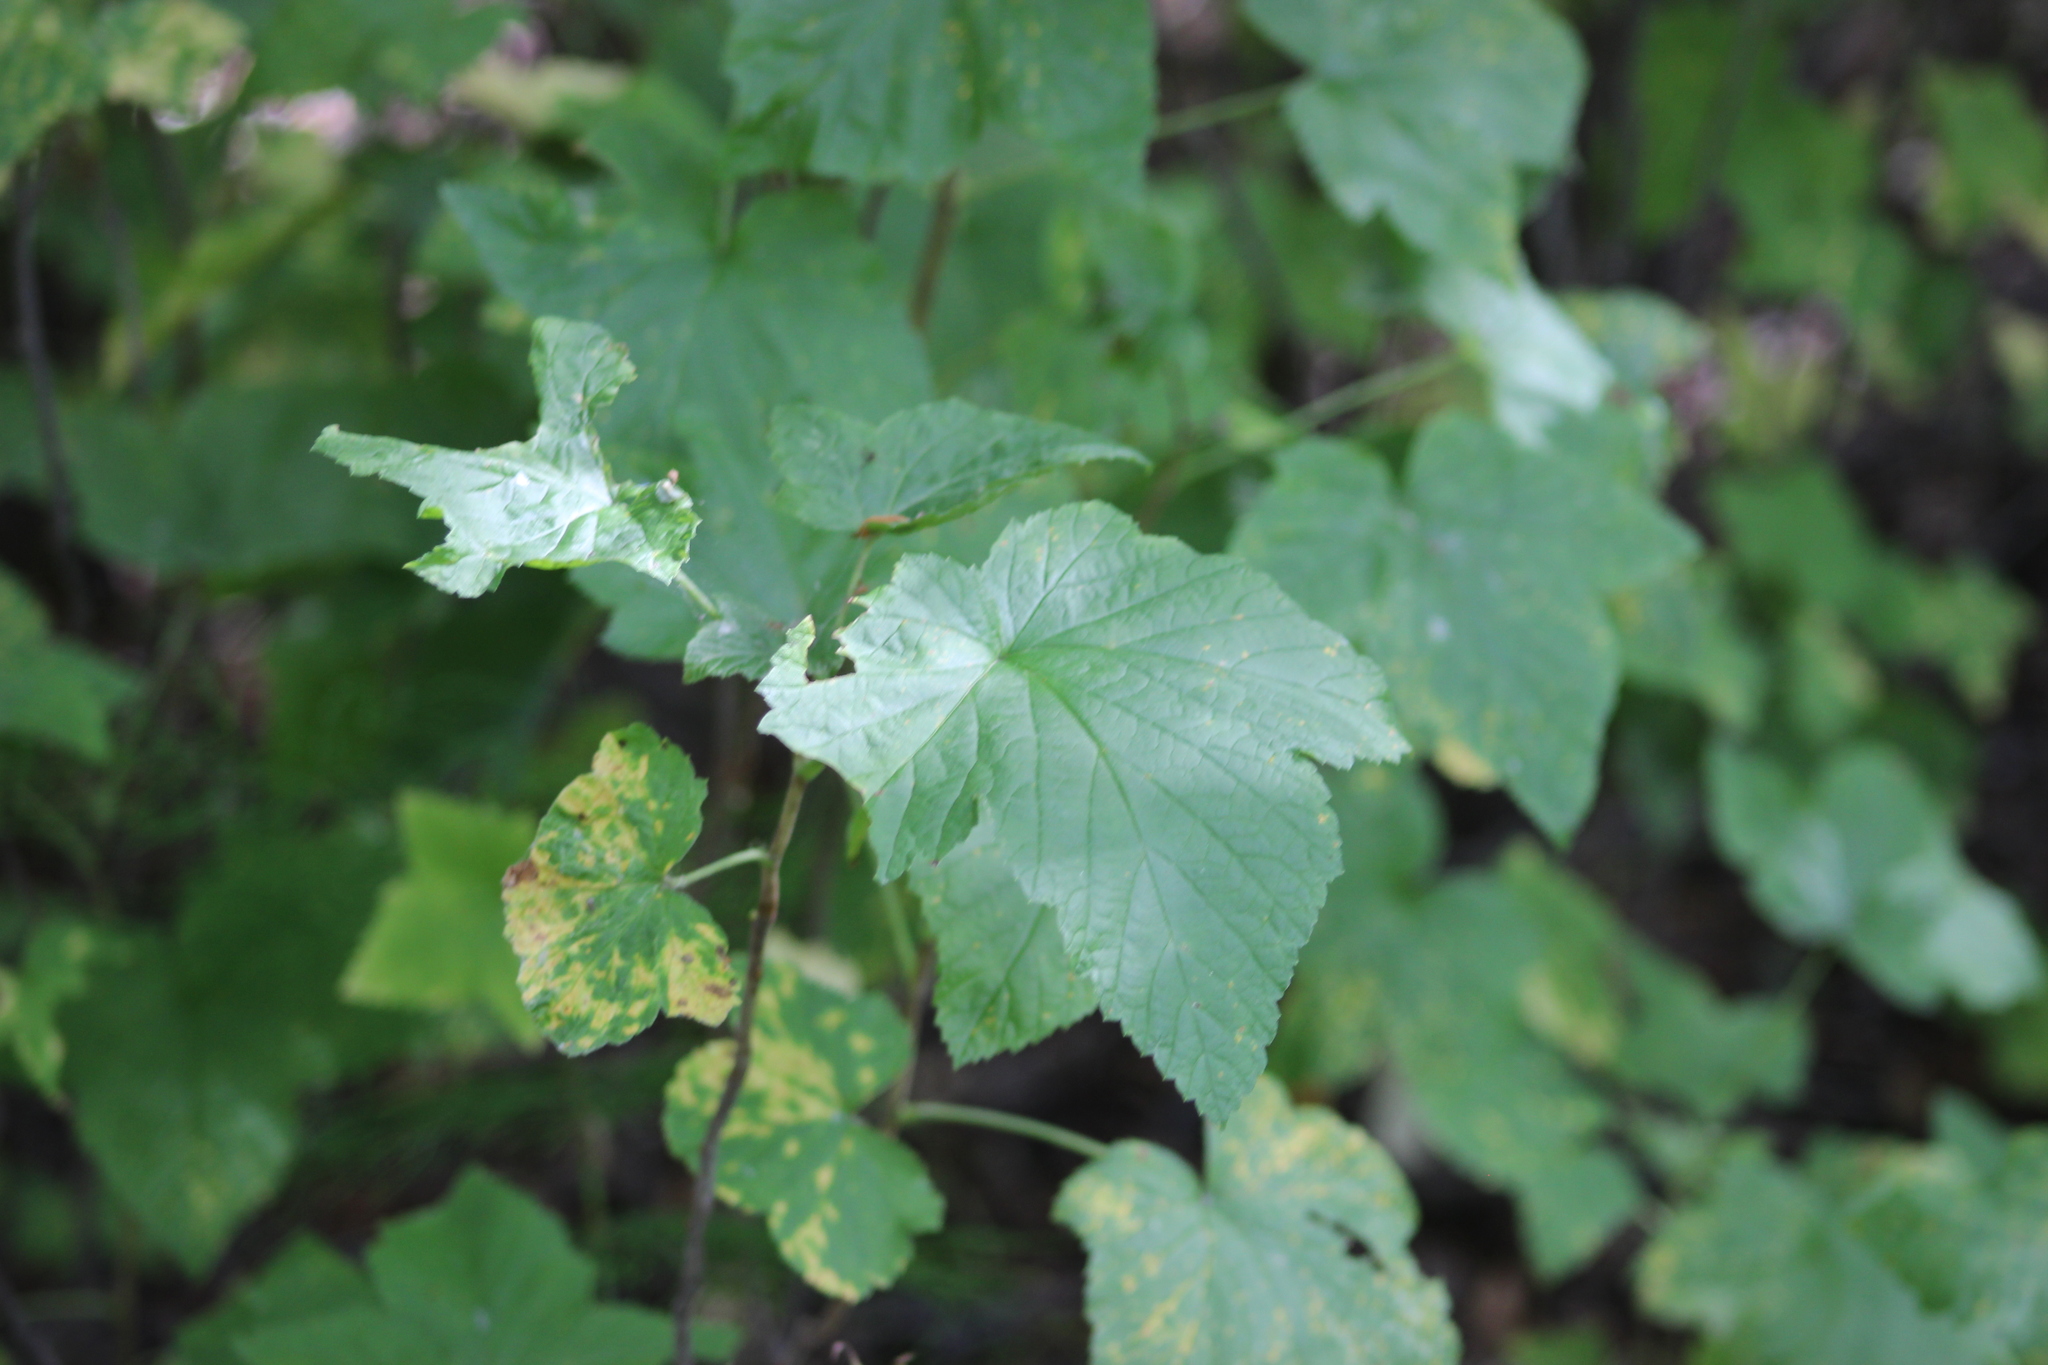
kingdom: Plantae
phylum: Tracheophyta
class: Magnoliopsida
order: Saxifragales
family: Grossulariaceae
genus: Ribes
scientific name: Ribes spicatum
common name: Downy currant
